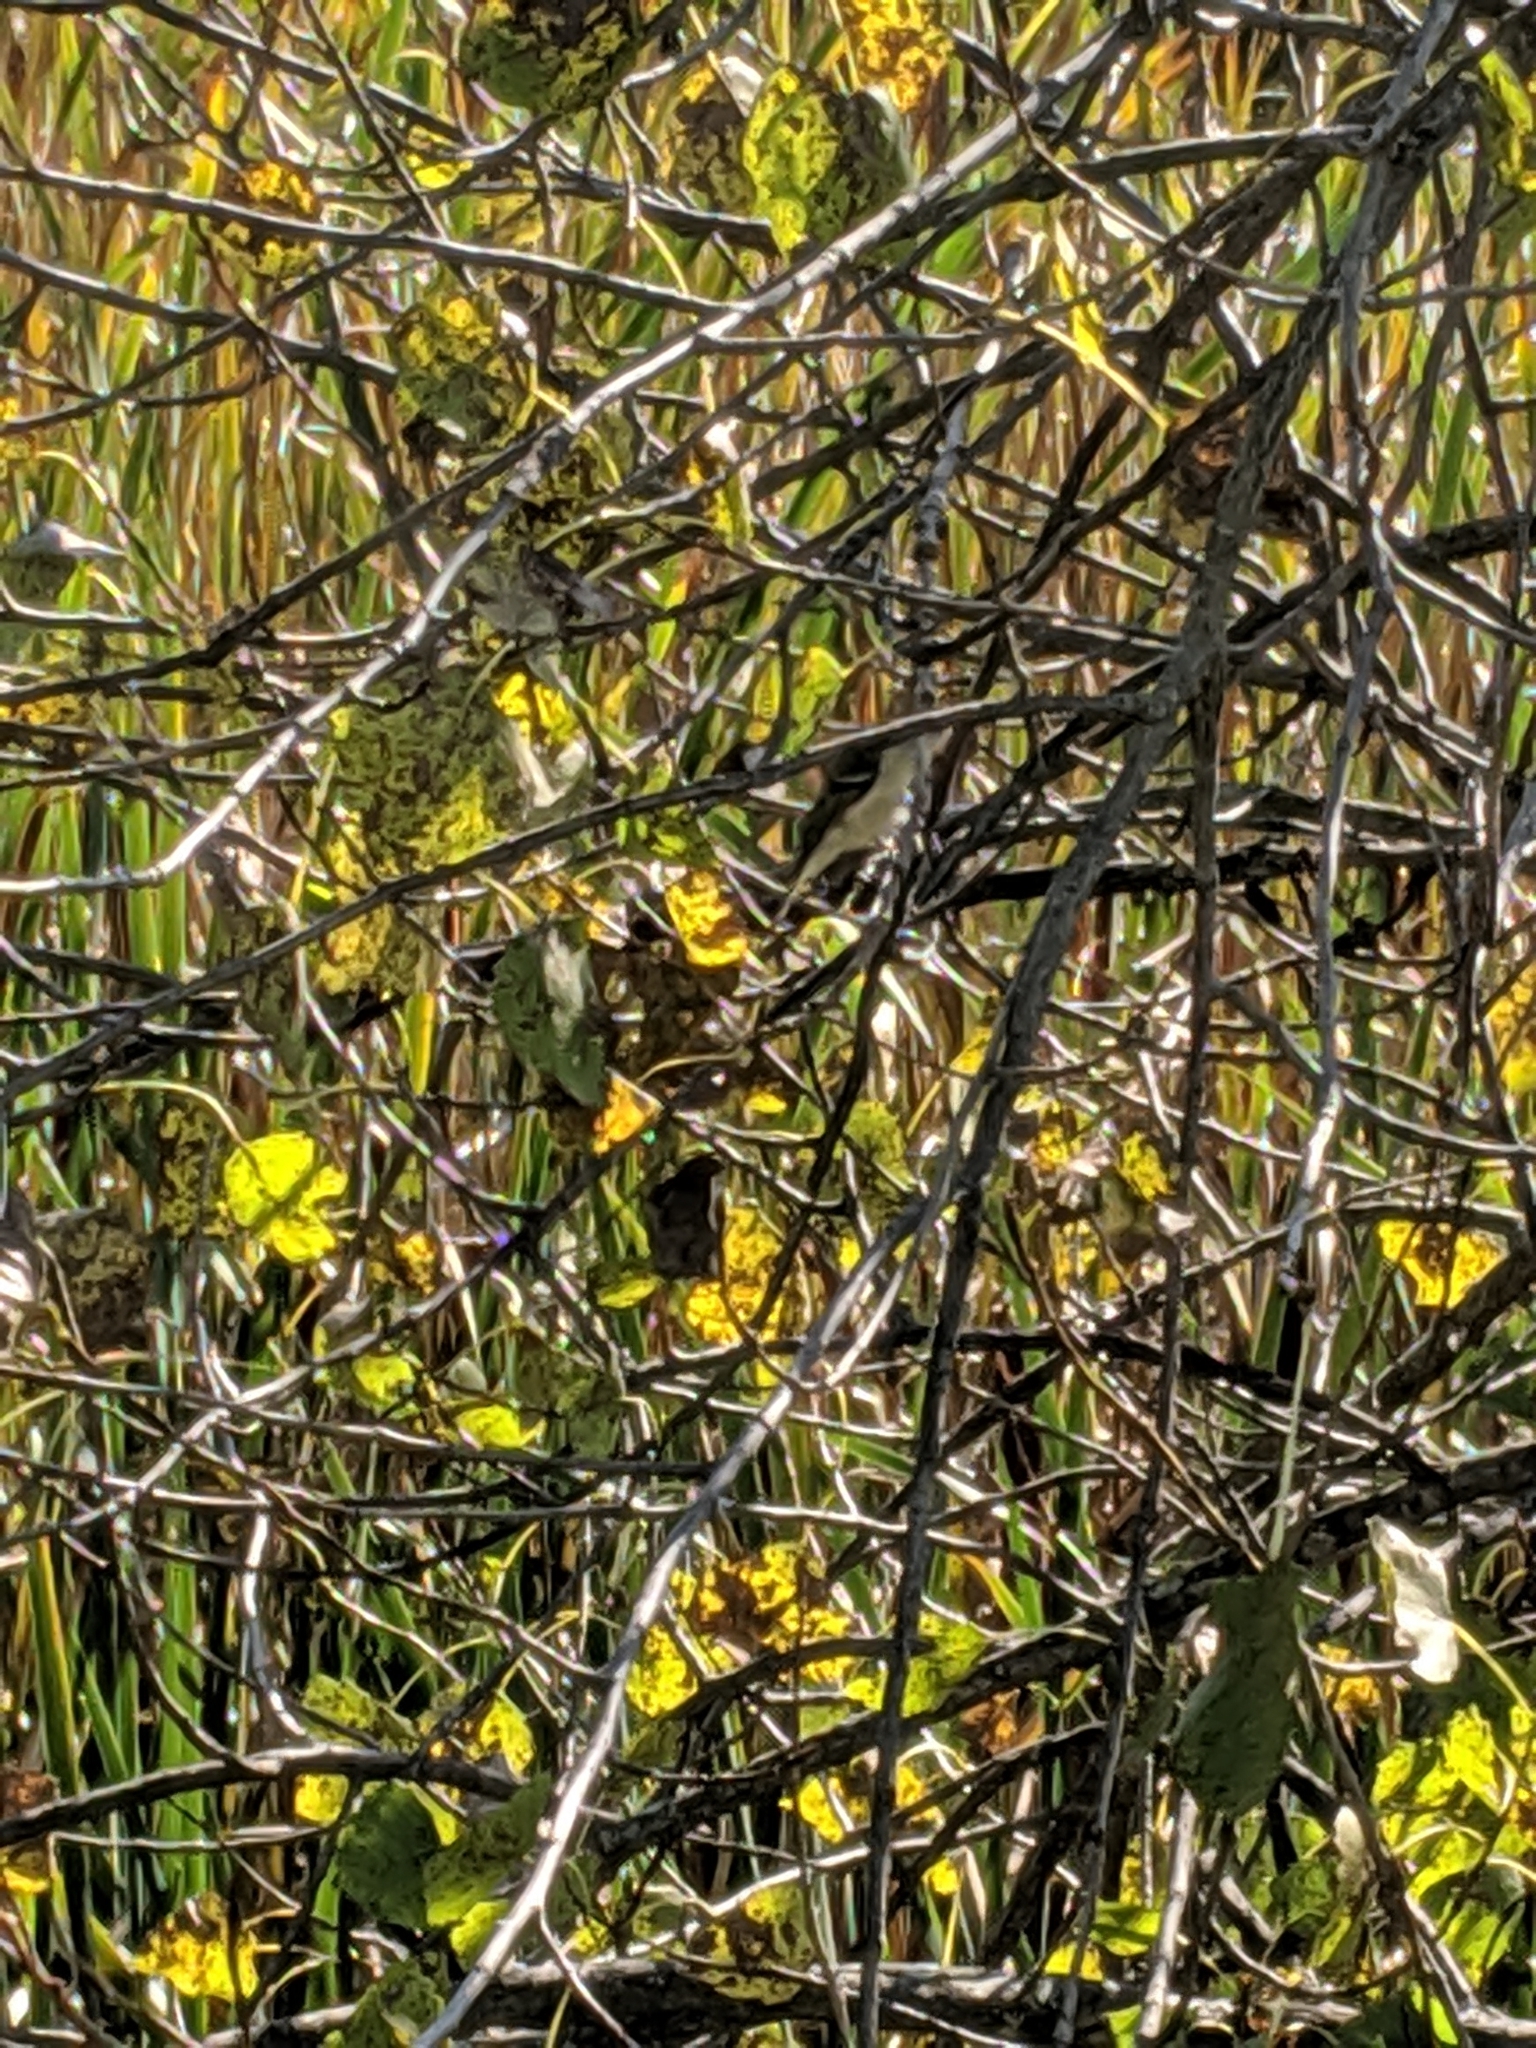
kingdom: Animalia
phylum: Chordata
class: Aves
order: Passeriformes
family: Regulidae
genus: Regulus
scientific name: Regulus calendula
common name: Ruby-crowned kinglet
